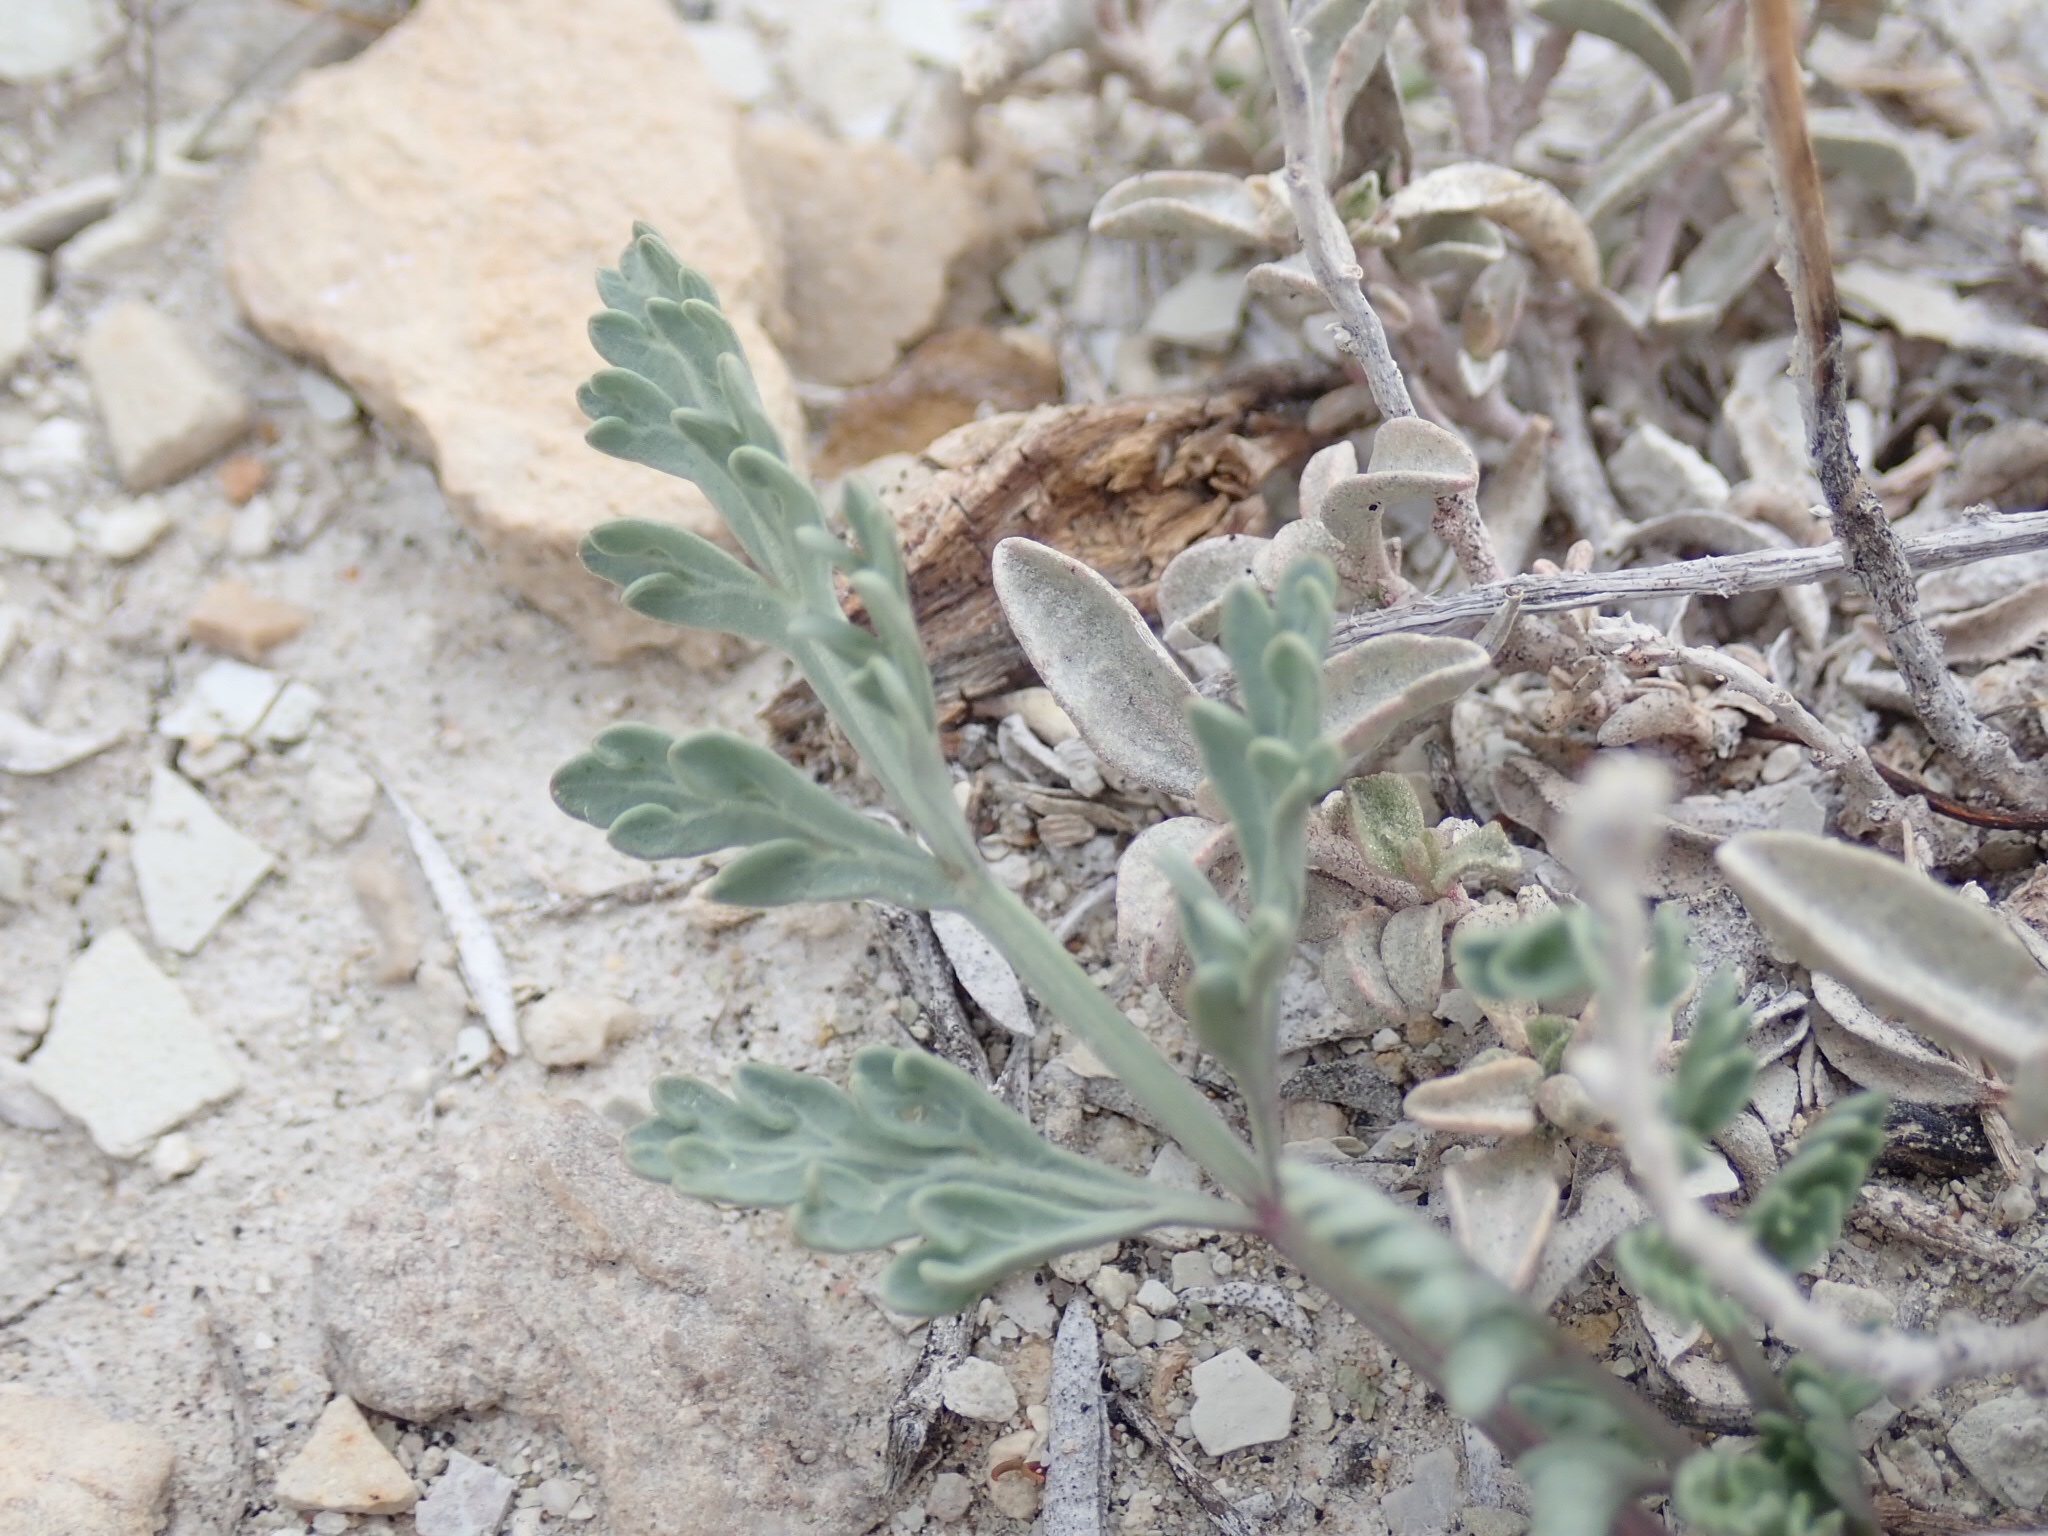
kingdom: Plantae
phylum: Tracheophyta
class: Magnoliopsida
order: Apiales
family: Apiaceae
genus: Vesper
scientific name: Vesper bulbosus
